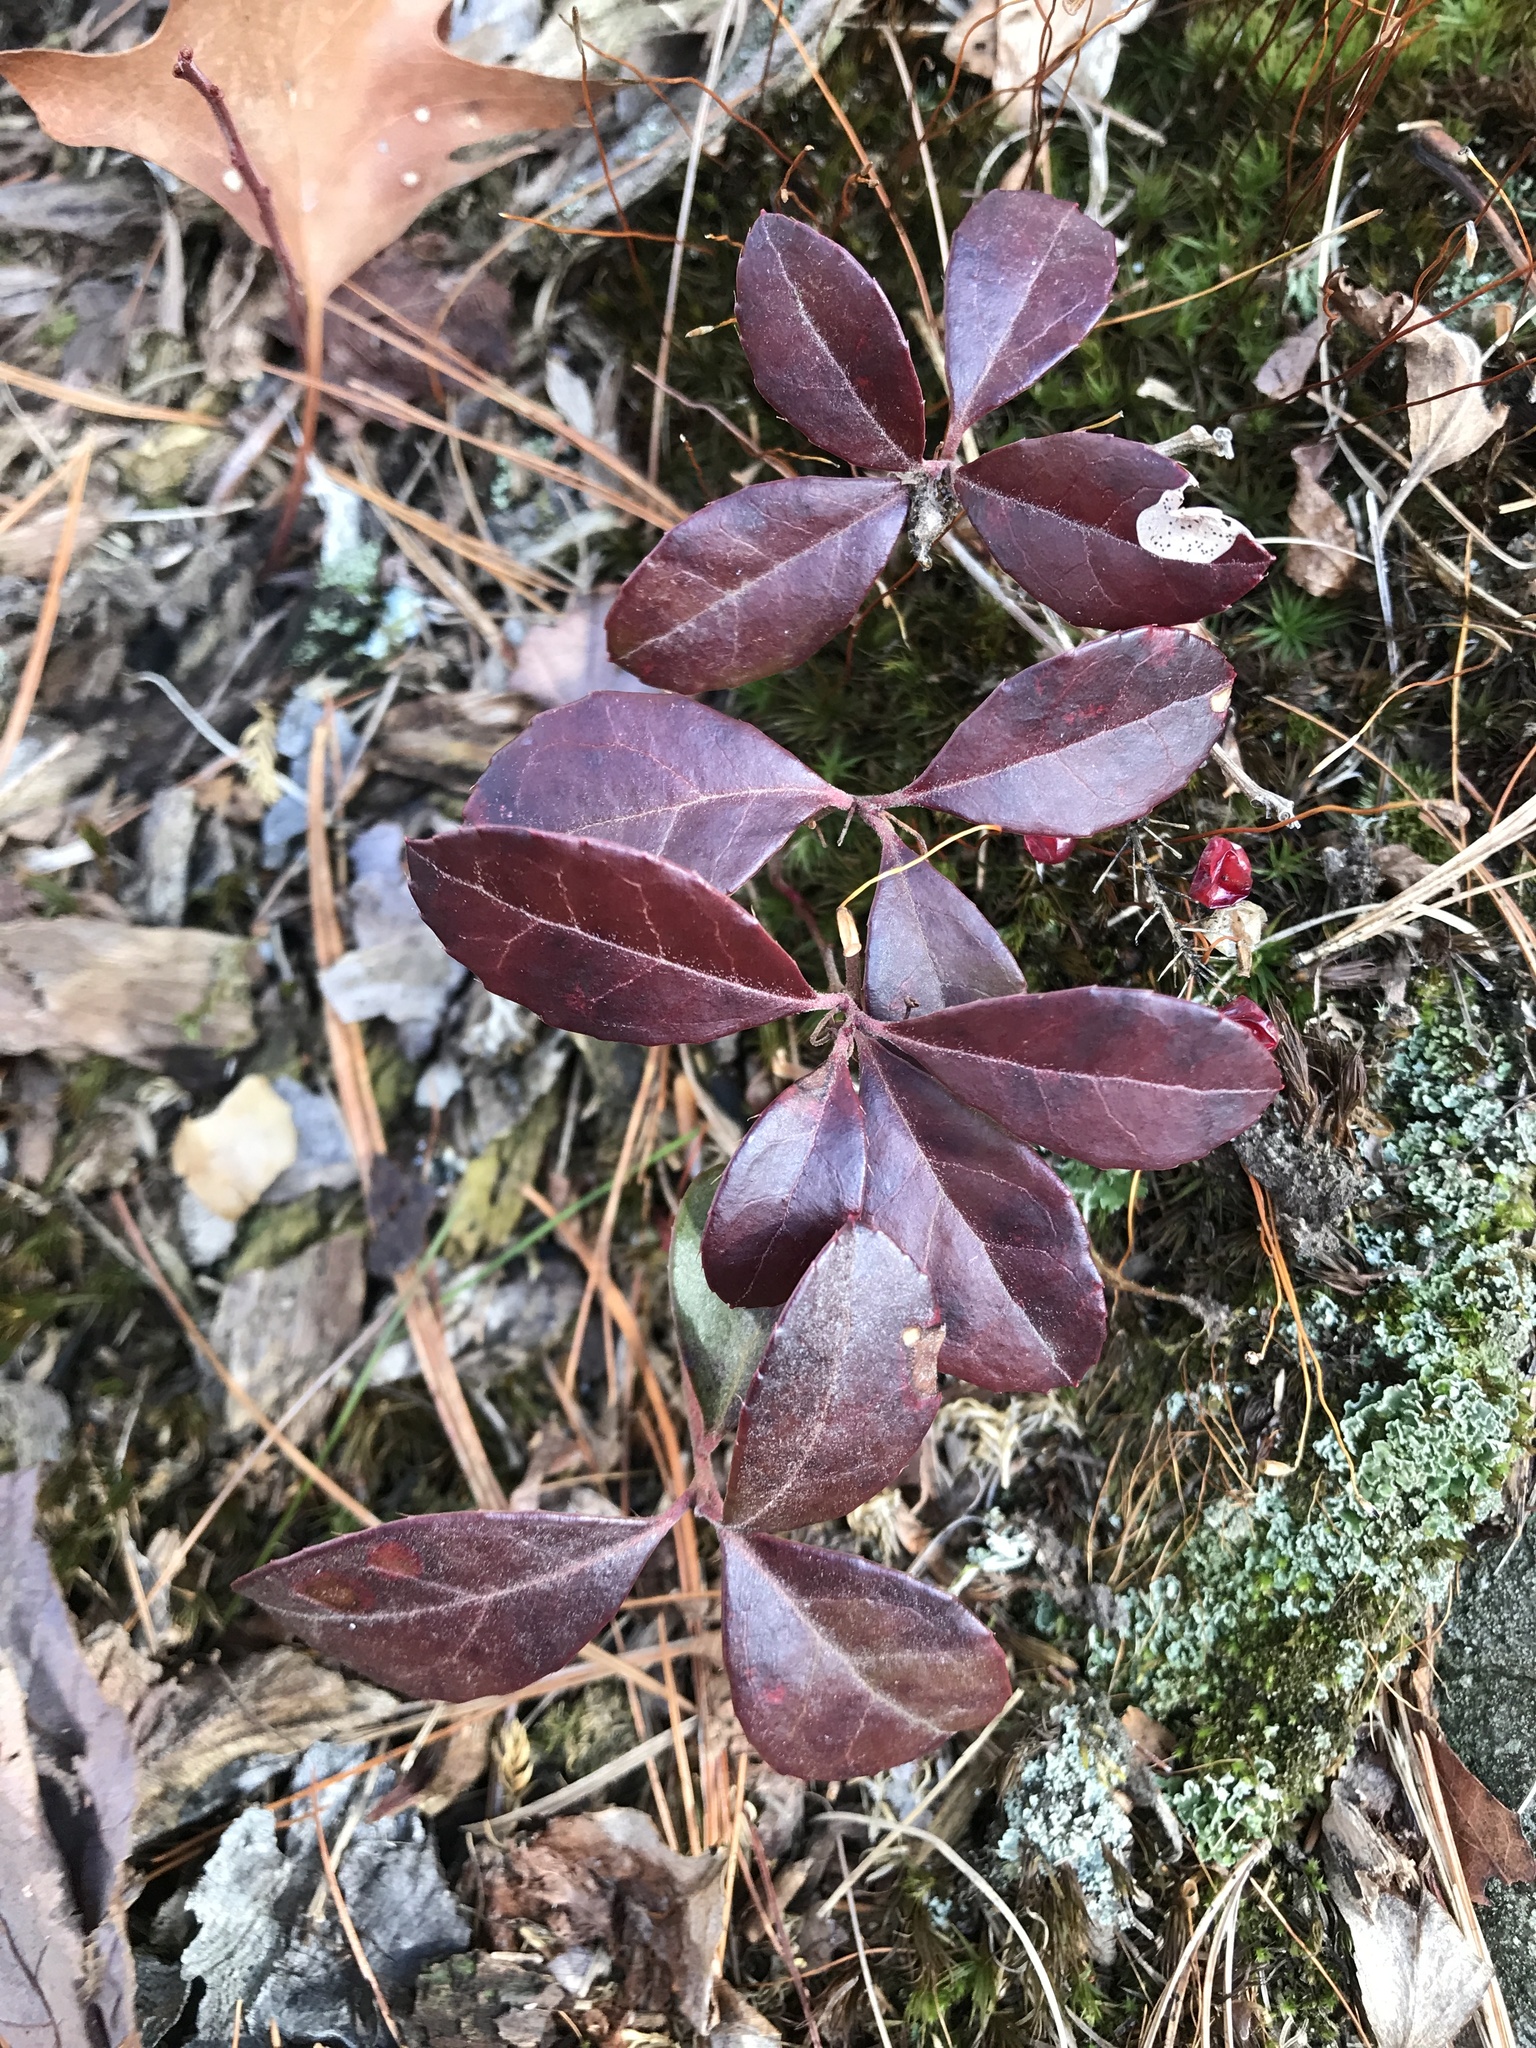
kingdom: Plantae
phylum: Tracheophyta
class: Magnoliopsida
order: Ericales
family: Ericaceae
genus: Gaultheria
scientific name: Gaultheria procumbens
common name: Checkerberry
